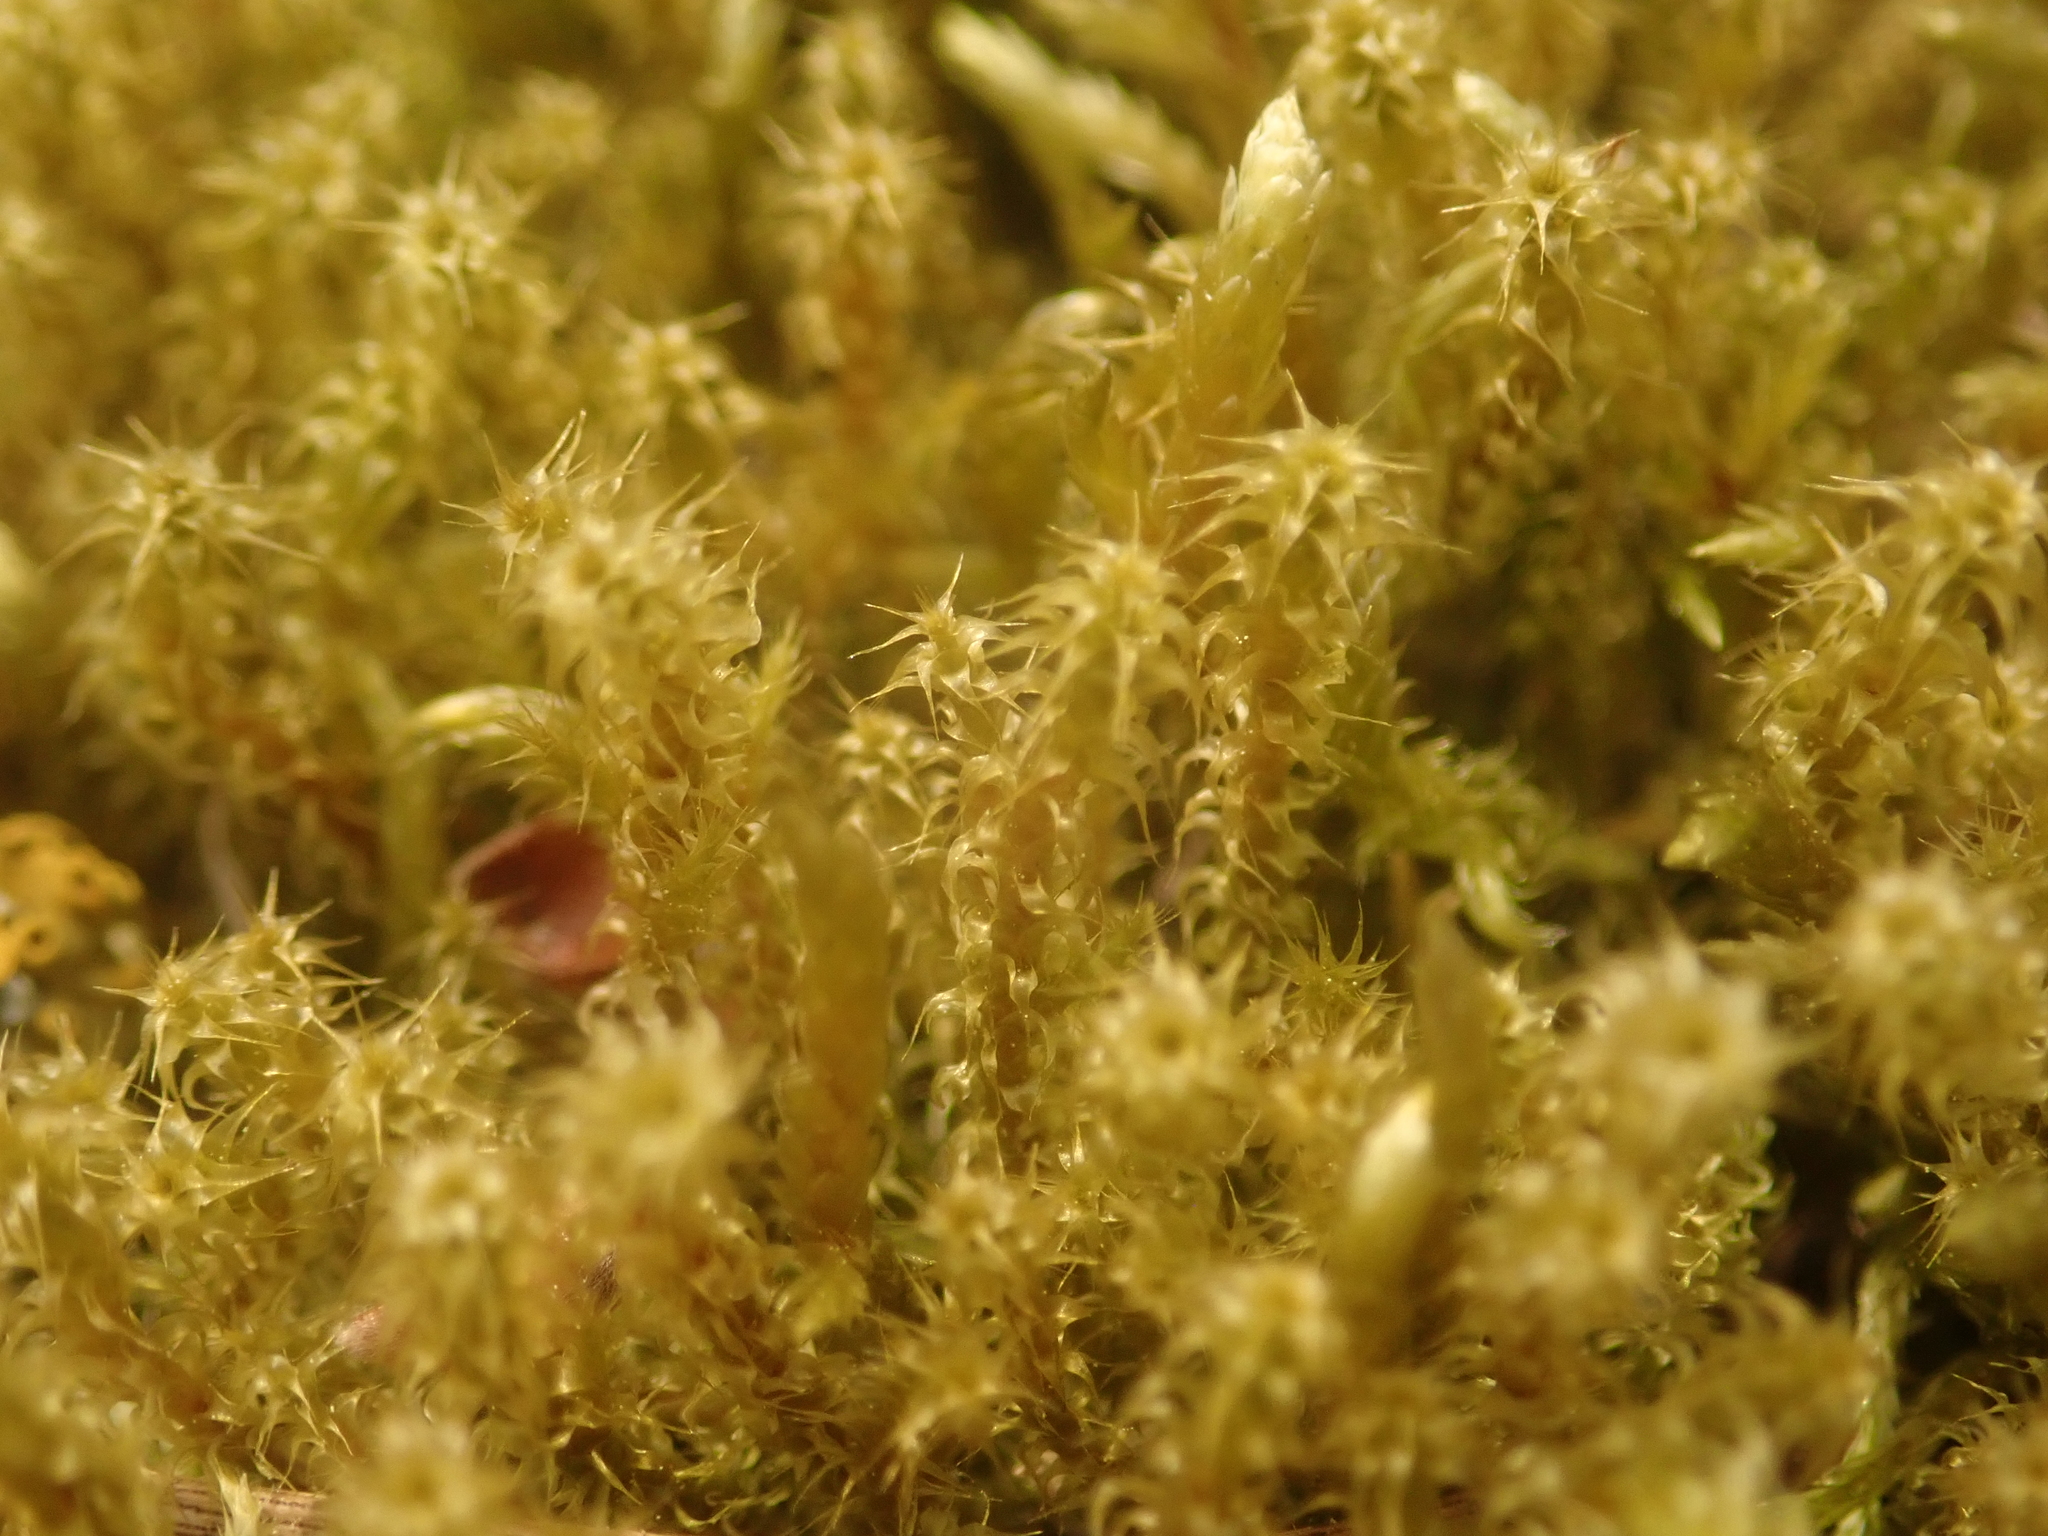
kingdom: Plantae
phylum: Bryophyta
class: Bryopsida
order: Hypnales
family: Hylocomiaceae
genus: Rhytidiadelphus
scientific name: Rhytidiadelphus squarrosus
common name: Springy turf-moss
